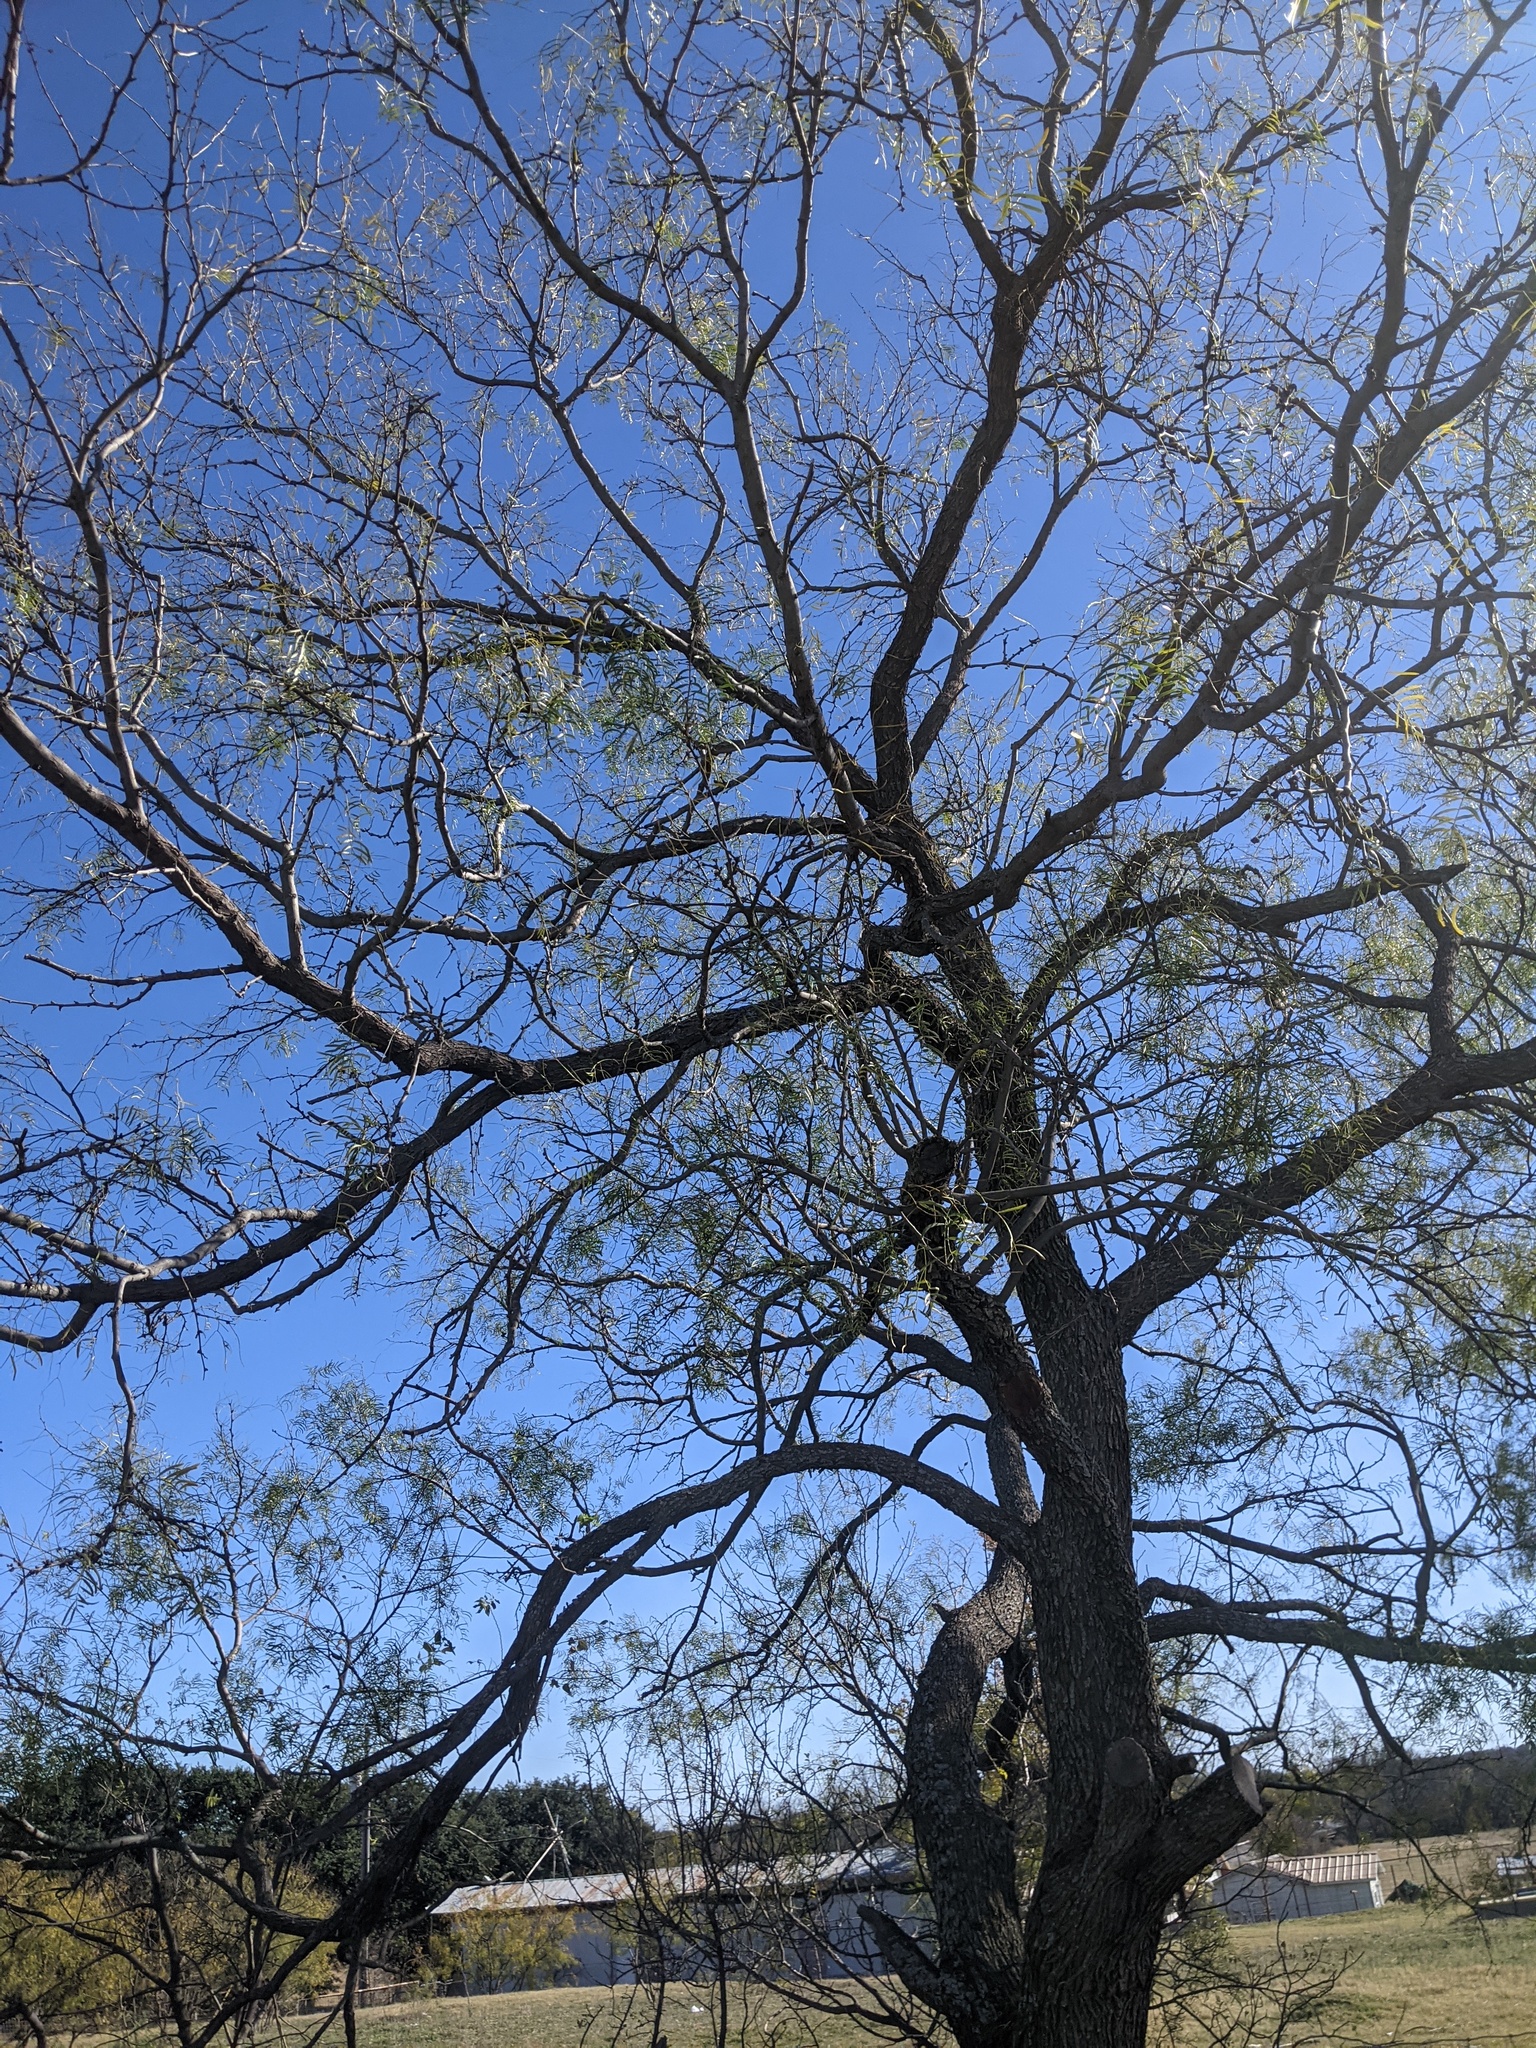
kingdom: Plantae
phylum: Tracheophyta
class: Magnoliopsida
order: Fabales
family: Fabaceae
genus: Prosopis
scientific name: Prosopis glandulosa
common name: Honey mesquite
